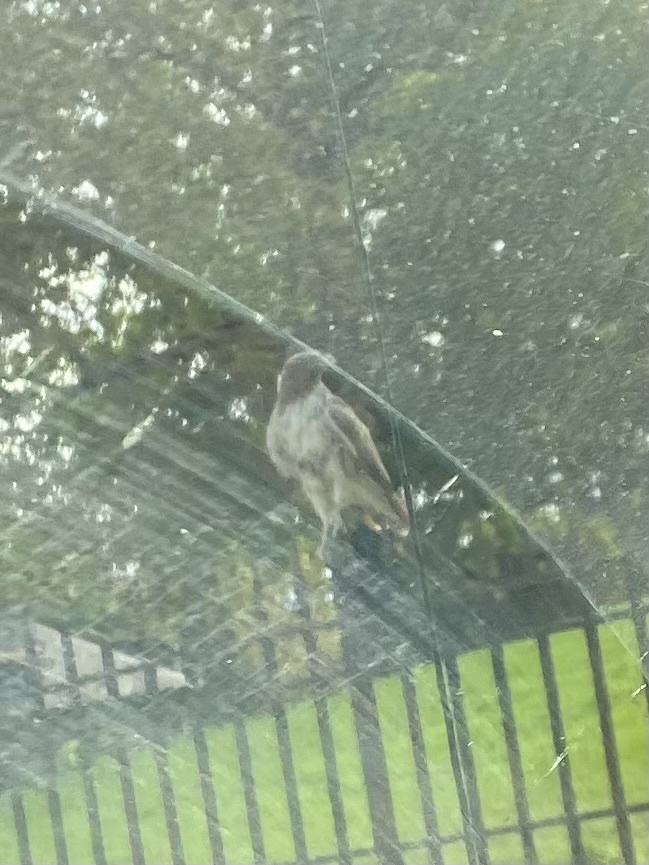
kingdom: Animalia
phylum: Chordata
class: Aves
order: Accipitriformes
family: Accipitridae
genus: Buteo
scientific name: Buteo jamaicensis
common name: Red-tailed hawk
